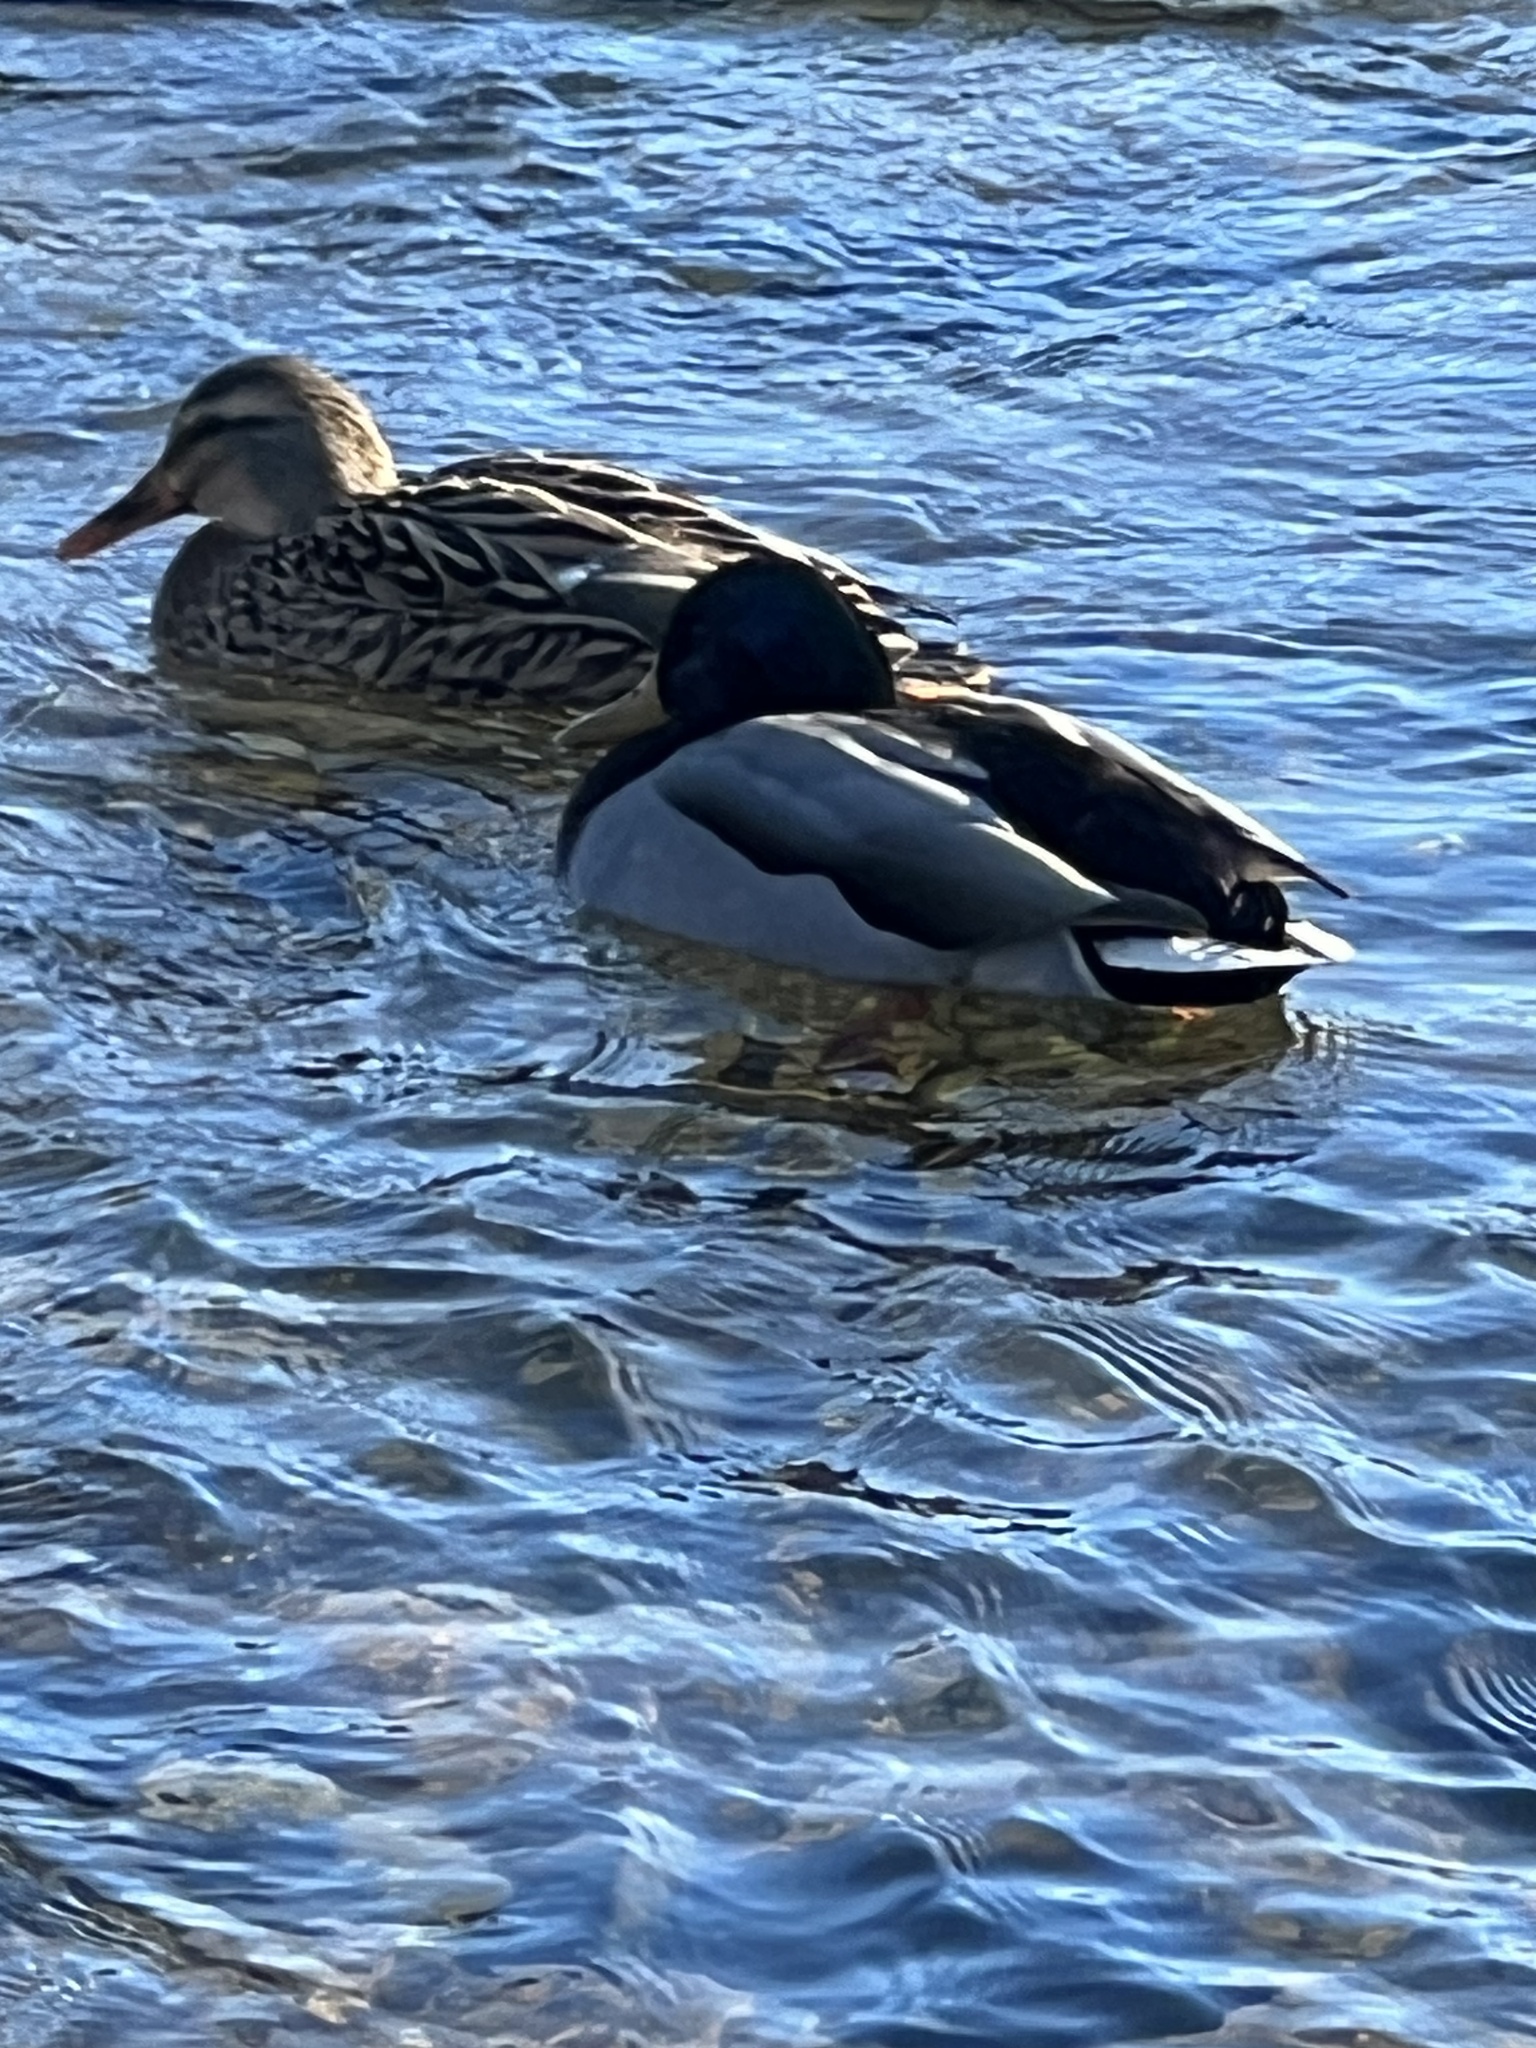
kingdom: Animalia
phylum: Chordata
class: Aves
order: Anseriformes
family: Anatidae
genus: Anas
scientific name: Anas platyrhynchos
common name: Mallard
